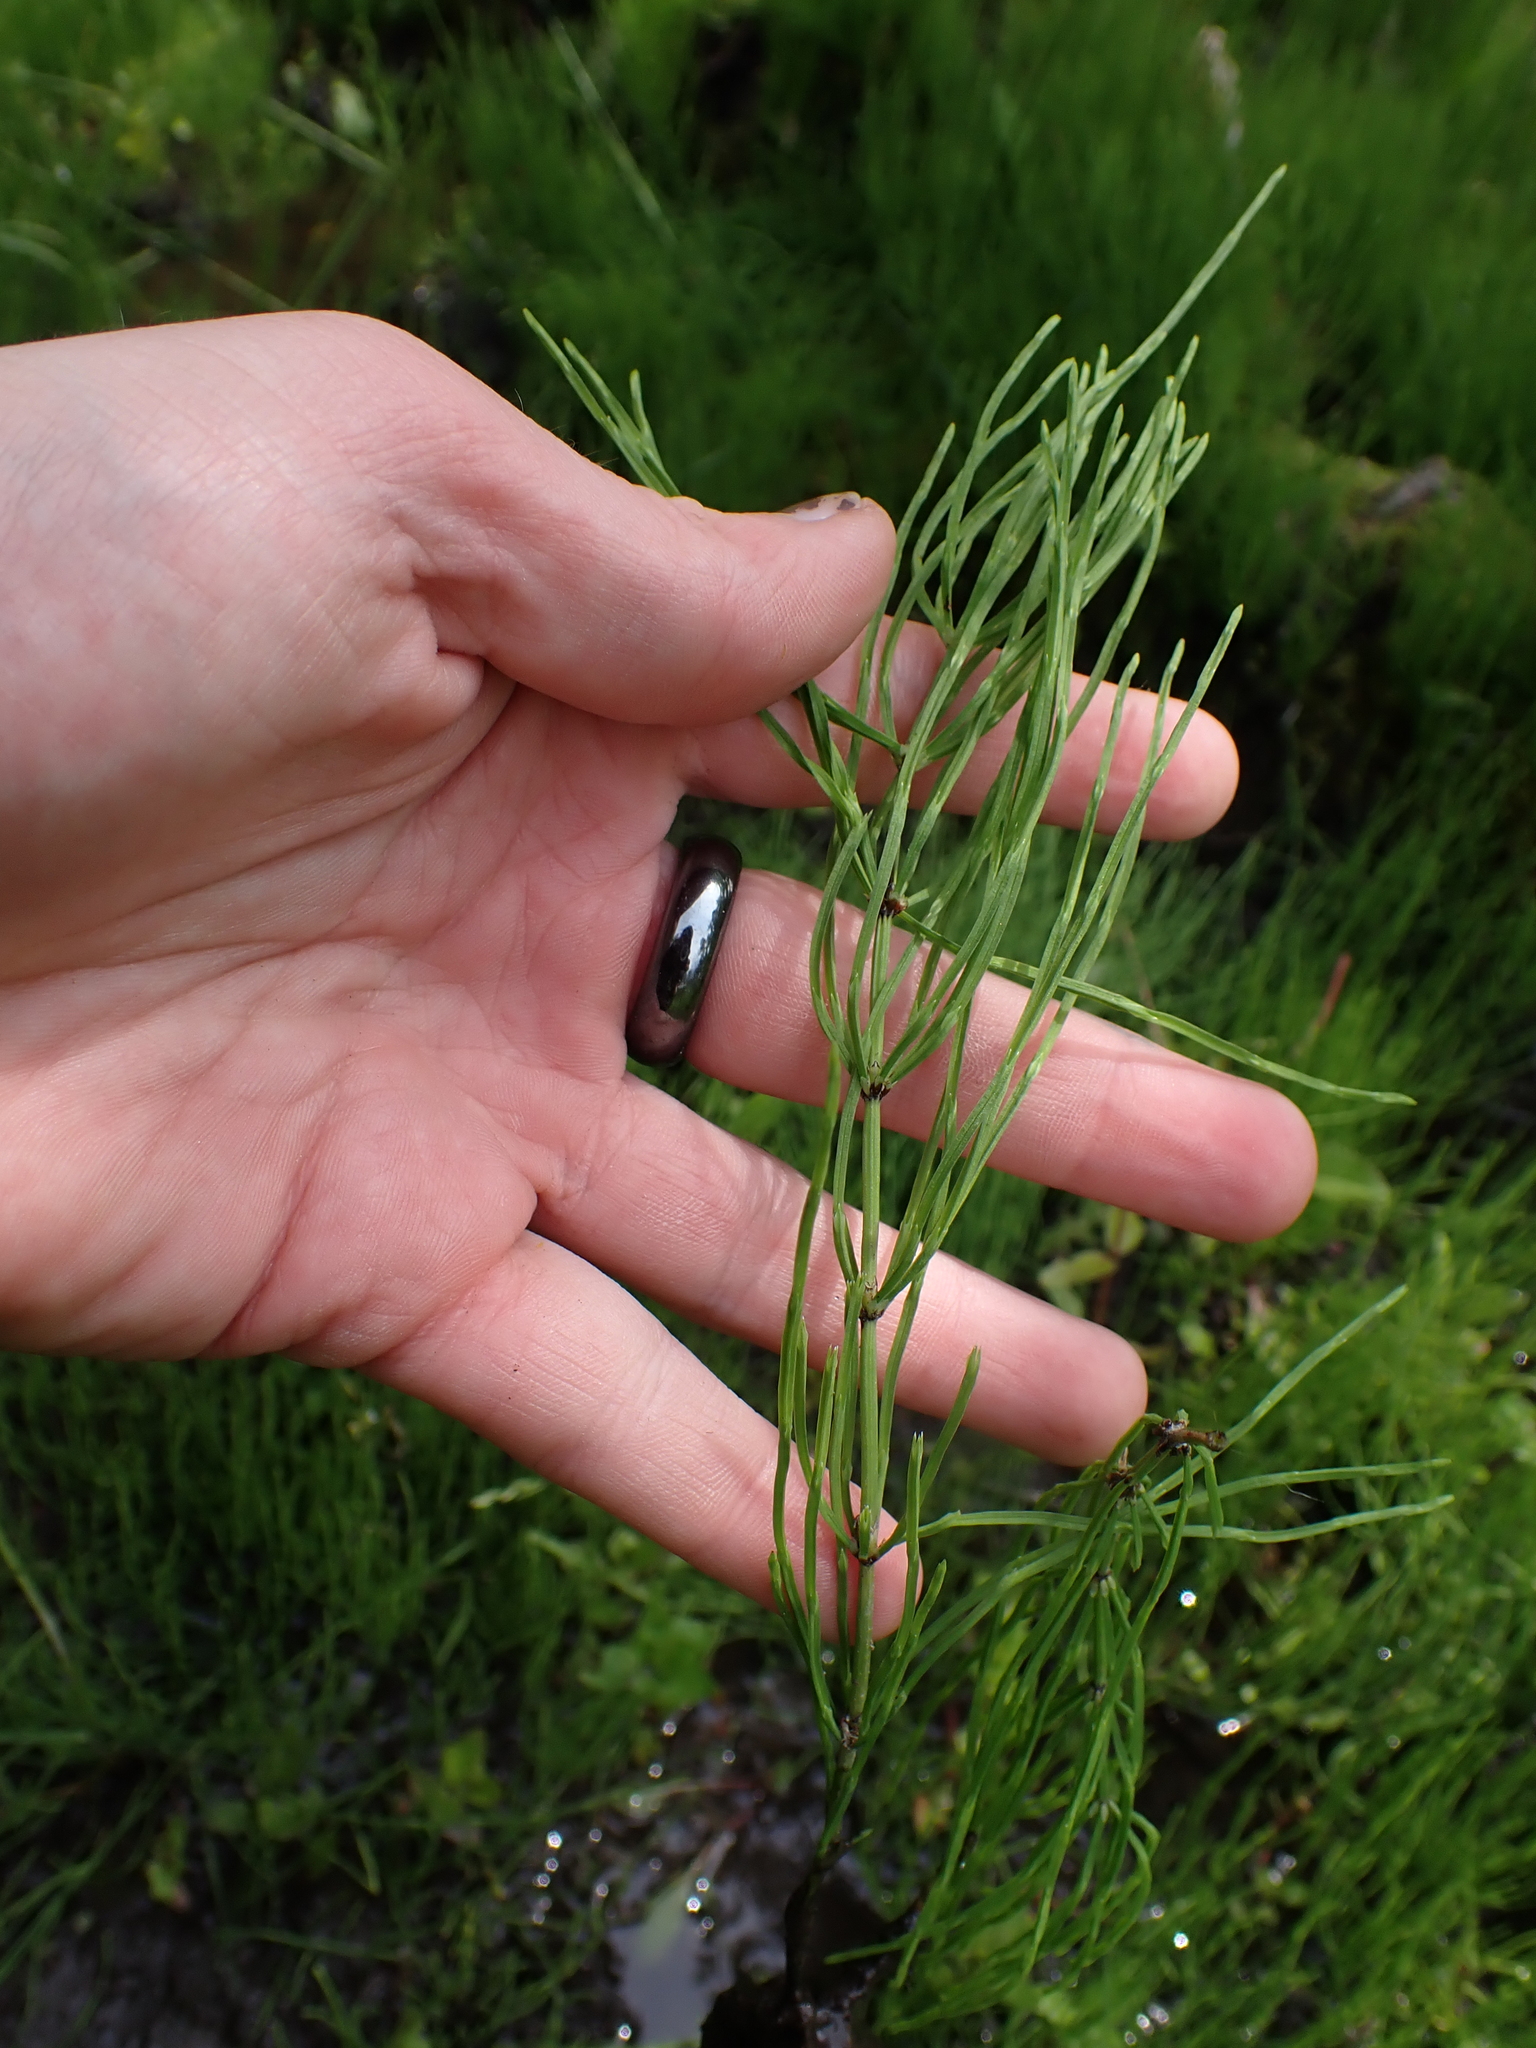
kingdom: Plantae
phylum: Tracheophyta
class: Polypodiopsida
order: Equisetales
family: Equisetaceae
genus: Equisetum
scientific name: Equisetum arvense
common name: Field horsetail
